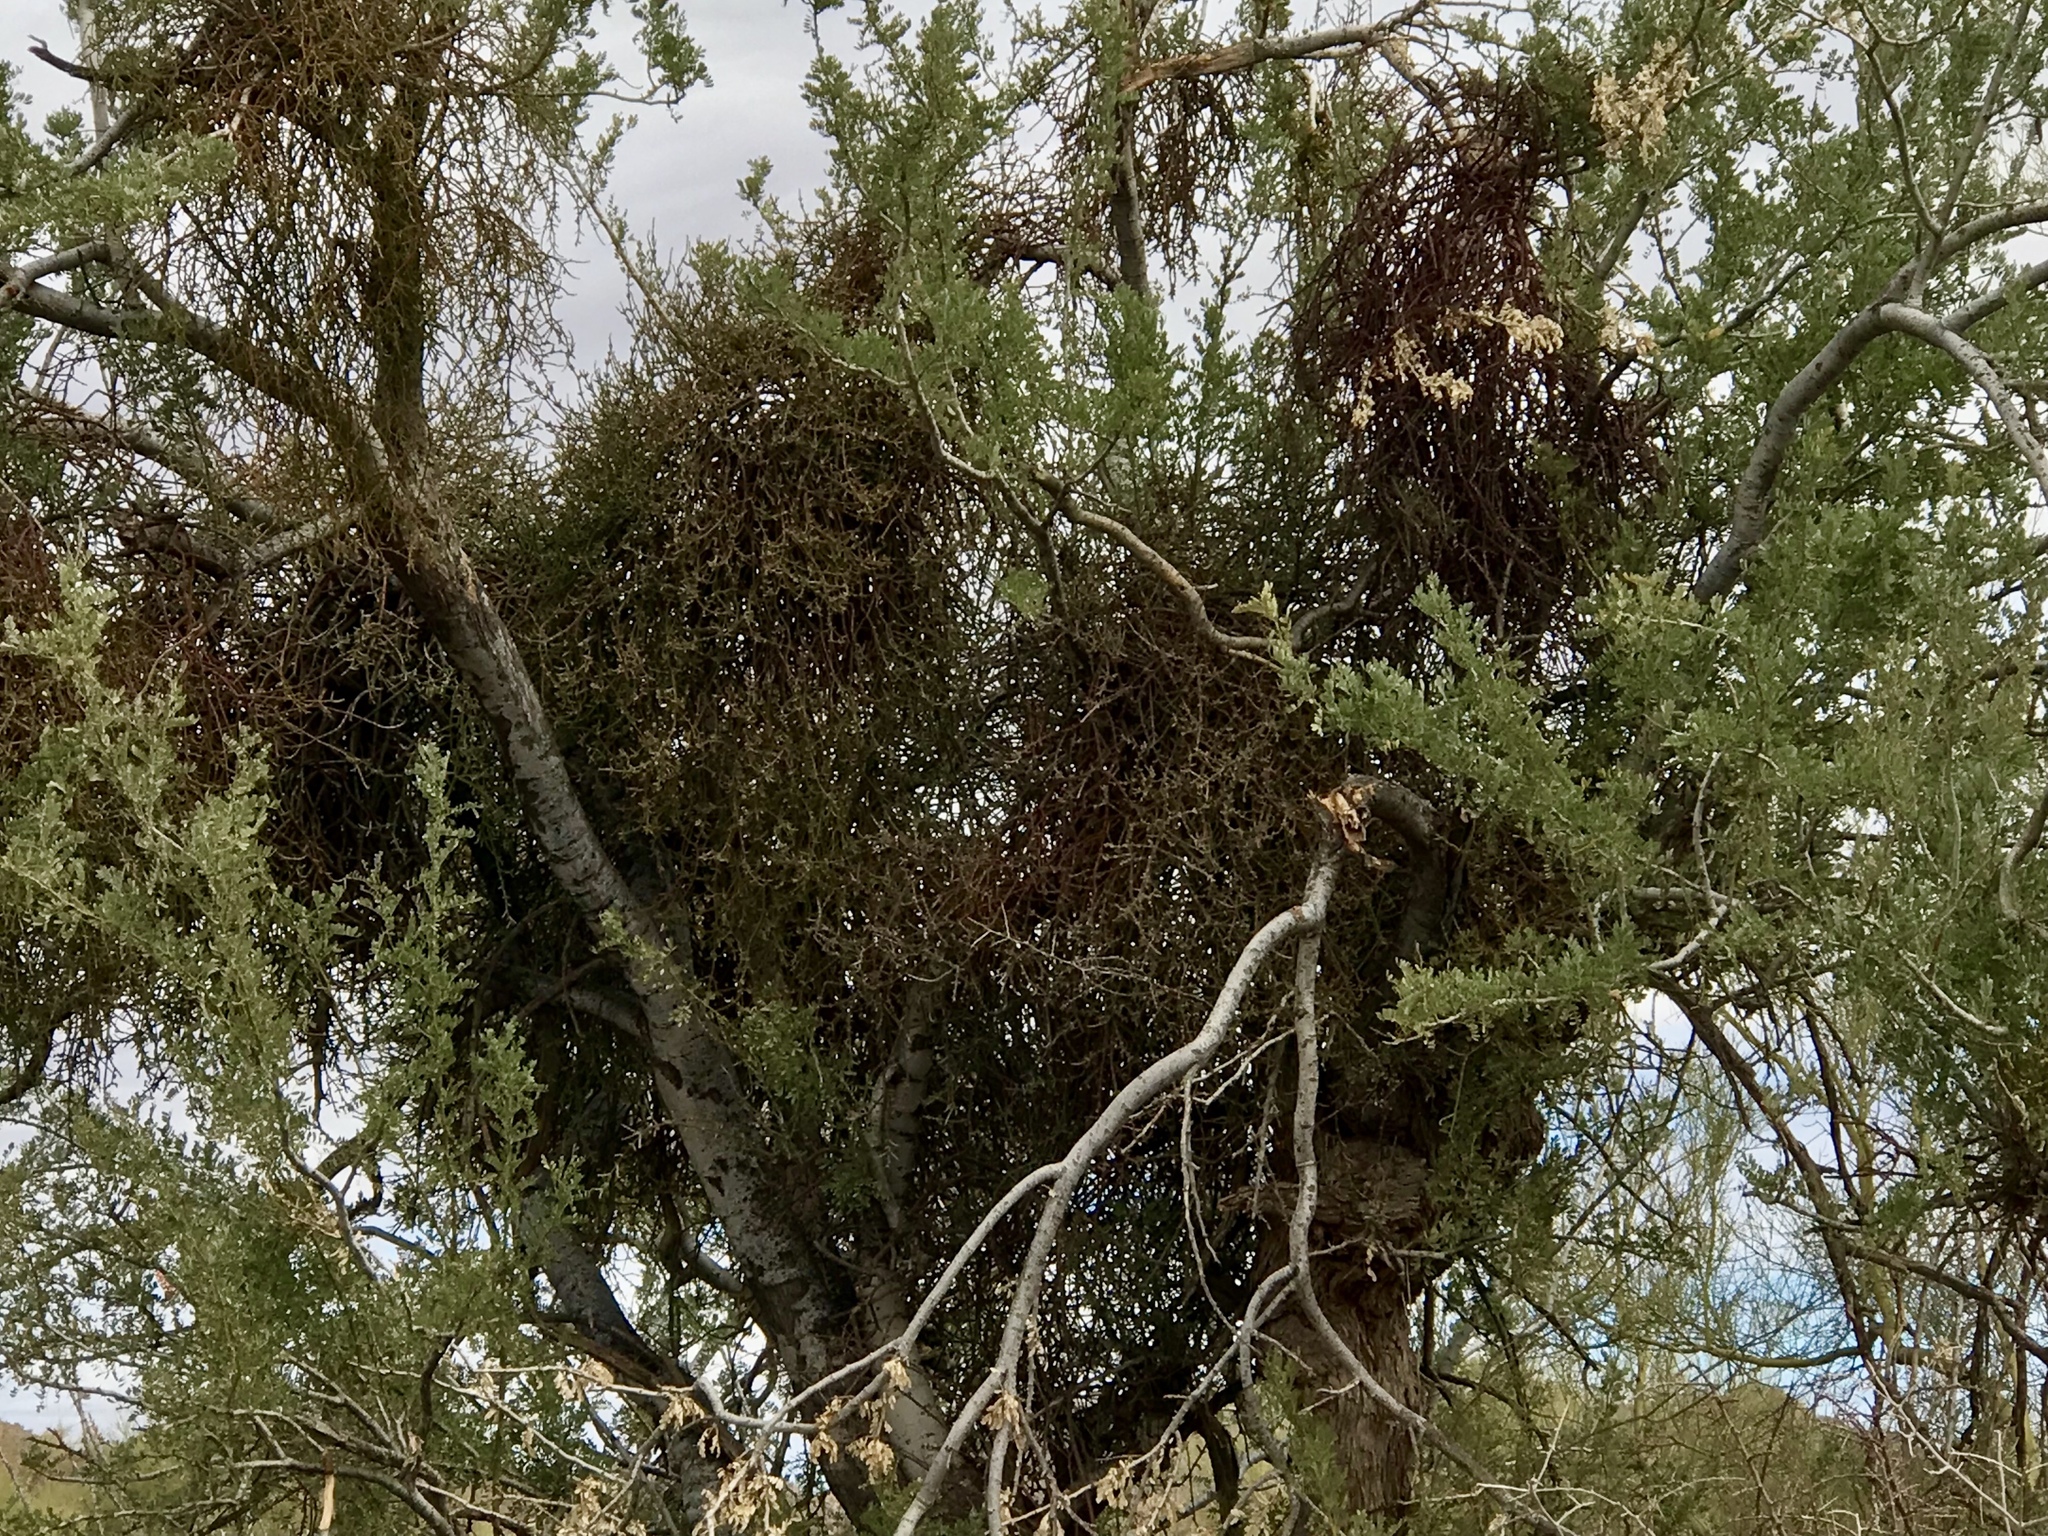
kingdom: Plantae
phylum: Tracheophyta
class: Magnoliopsida
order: Santalales
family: Viscaceae
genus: Phoradendron
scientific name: Phoradendron californicum
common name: Acacia mistletoe
